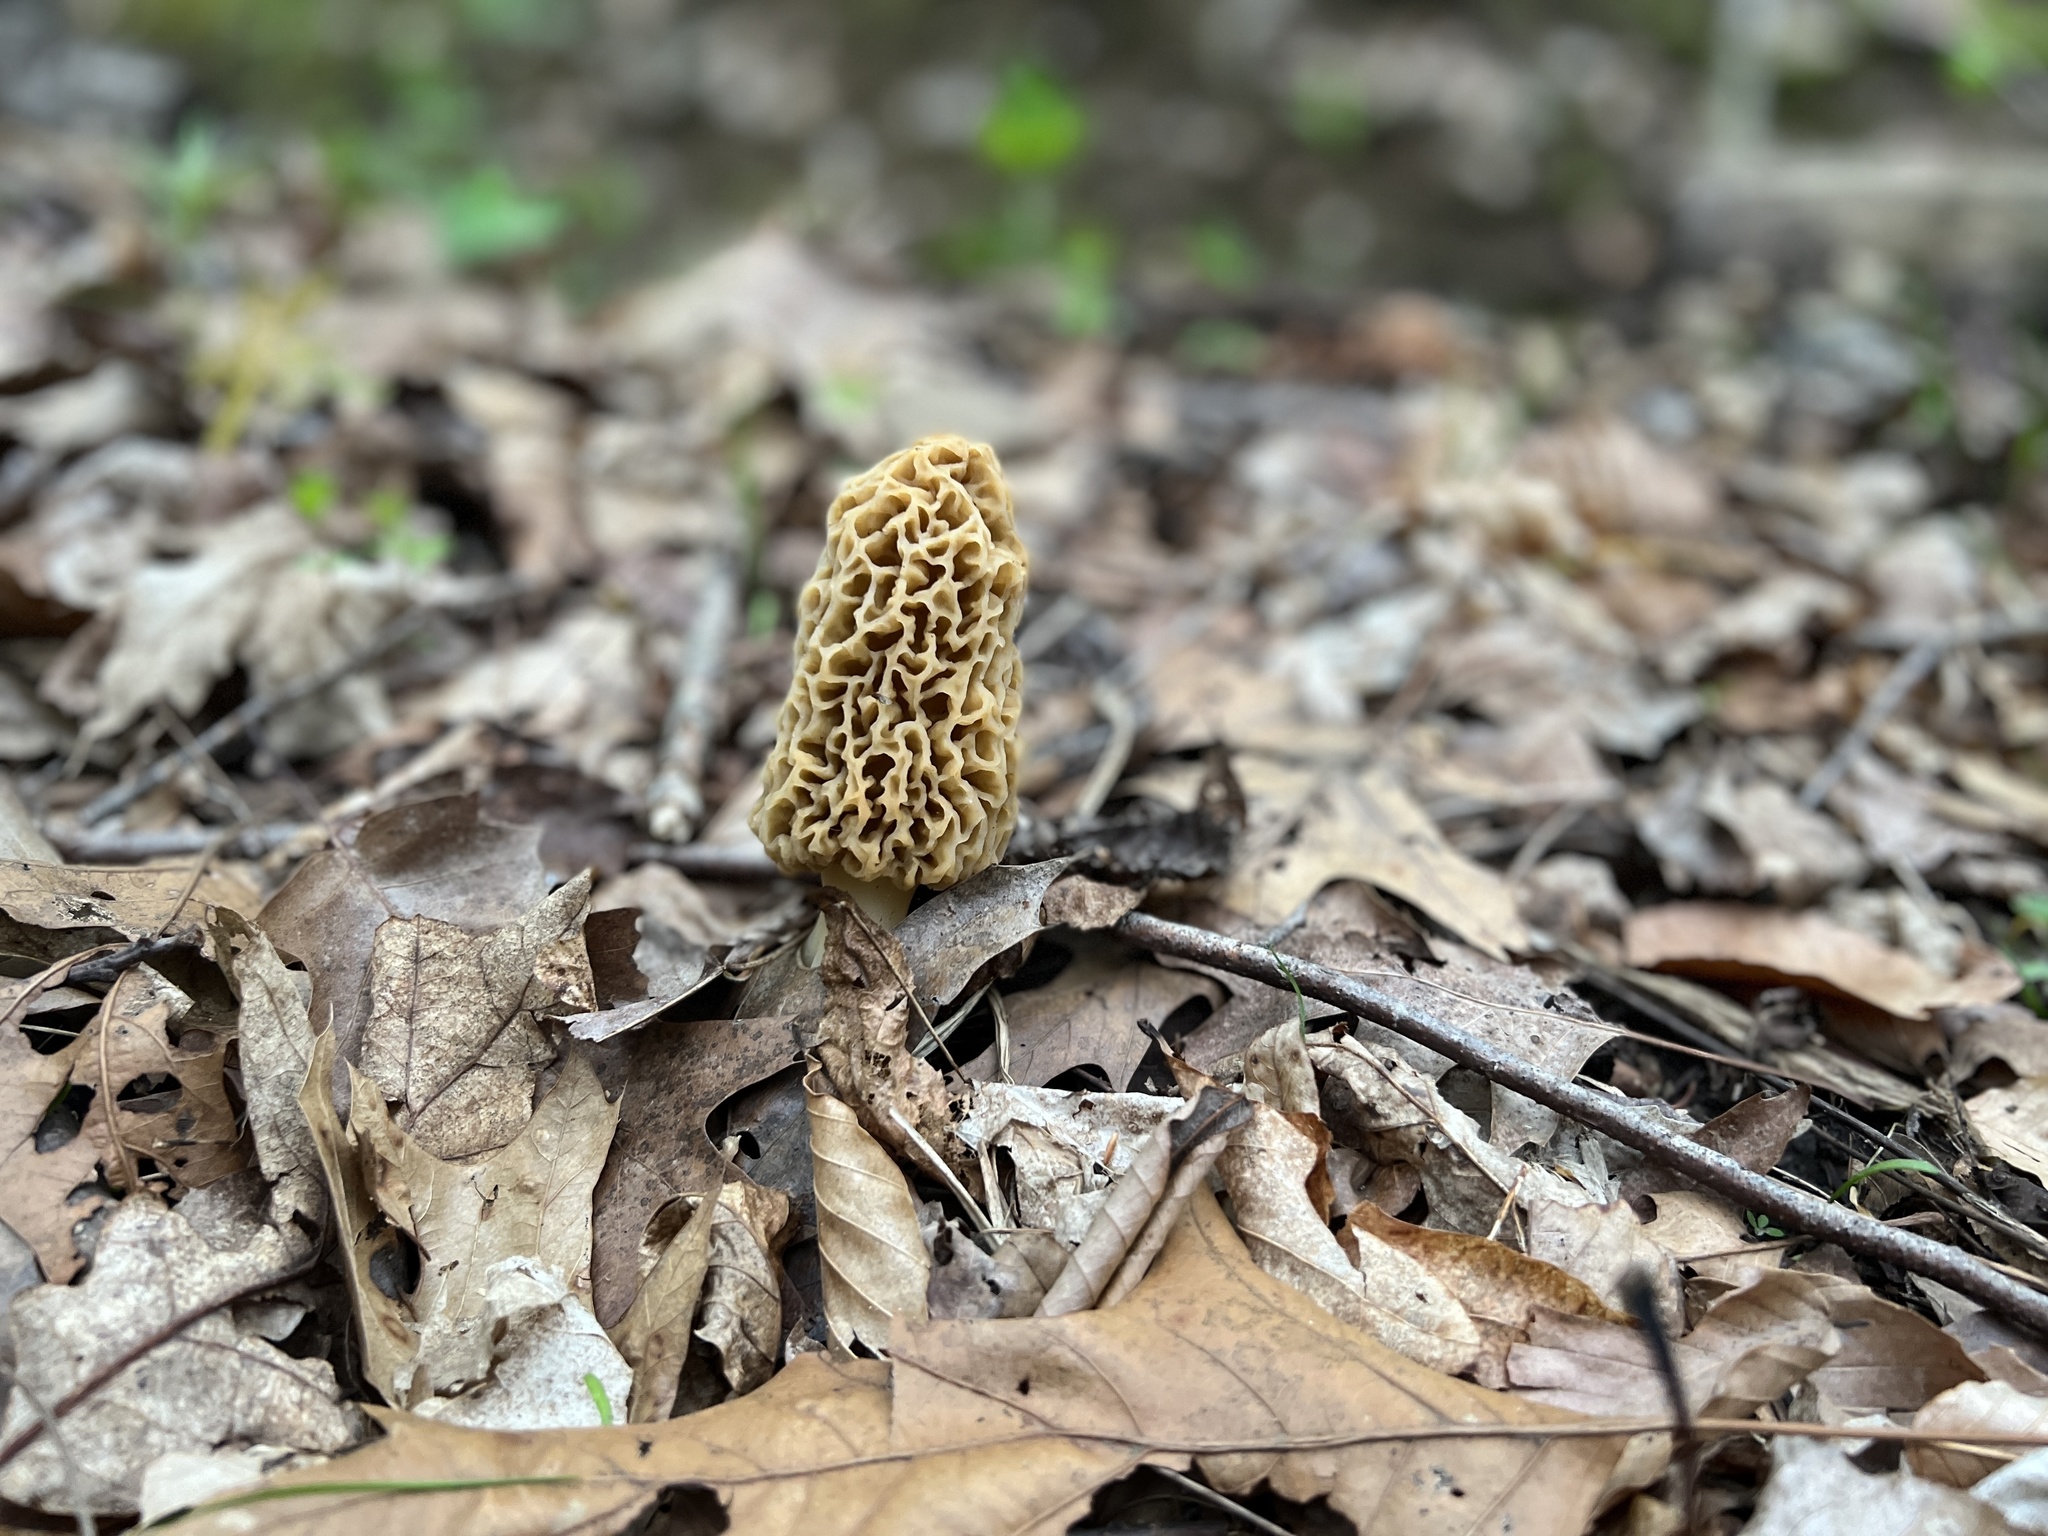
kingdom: Fungi
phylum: Ascomycota
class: Pezizomycetes
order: Pezizales
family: Morchellaceae
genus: Morchella
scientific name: Morchella americana
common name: White morel
